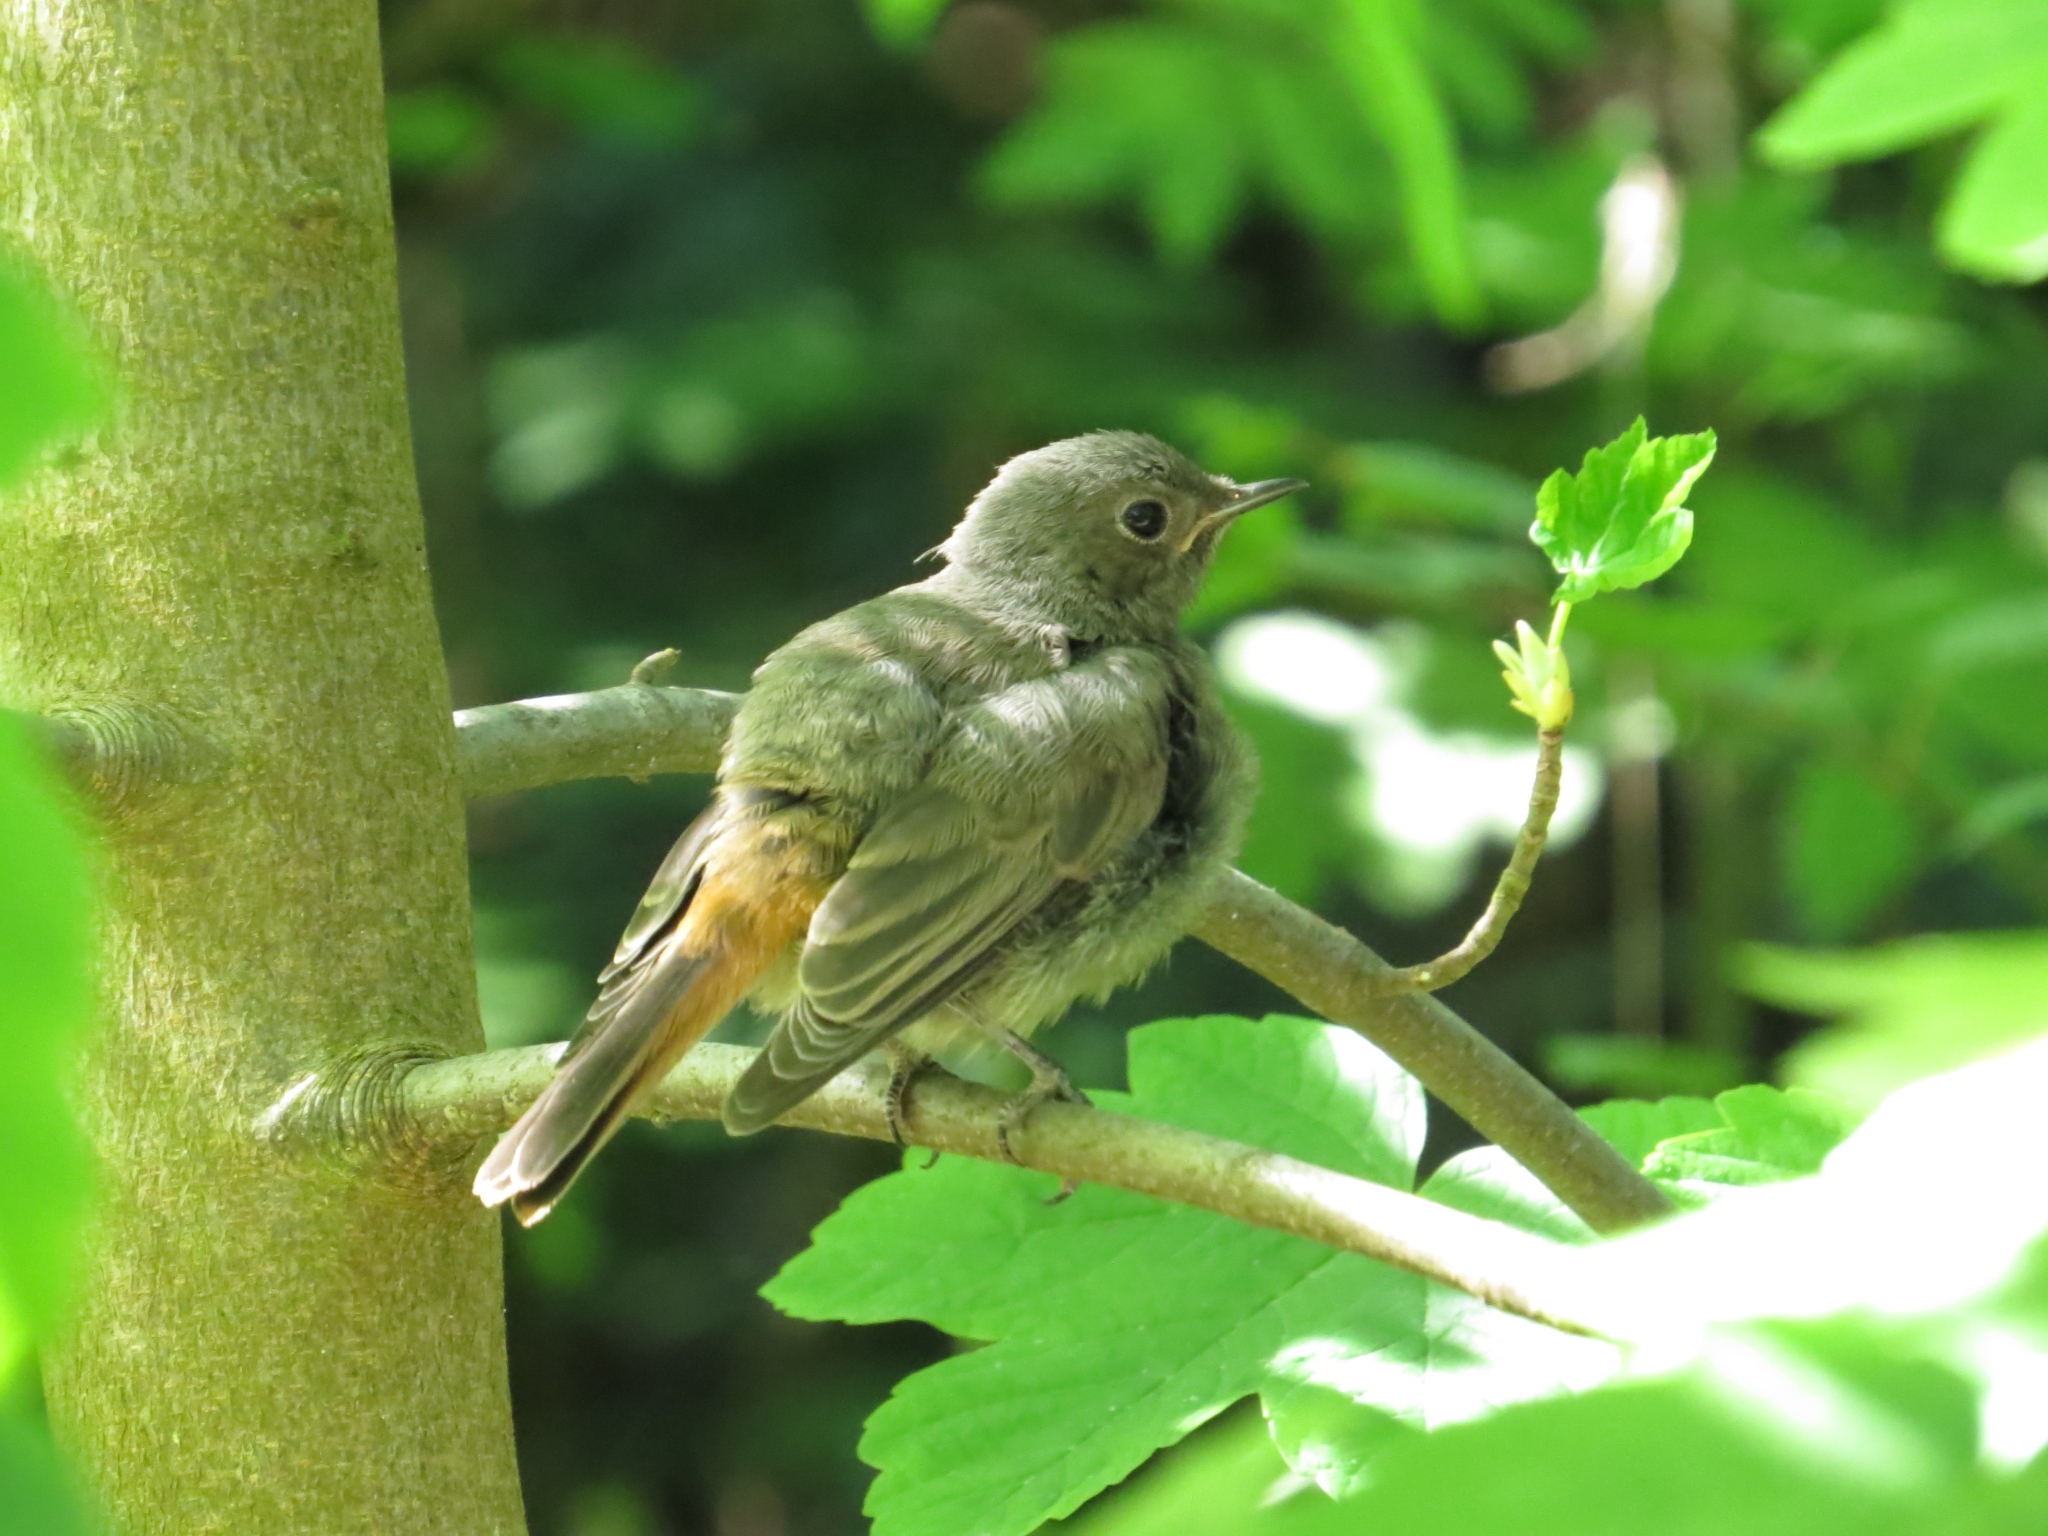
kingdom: Animalia
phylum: Chordata
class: Aves
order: Passeriformes
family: Muscicapidae
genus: Phoenicurus
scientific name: Phoenicurus ochruros
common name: Black redstart
